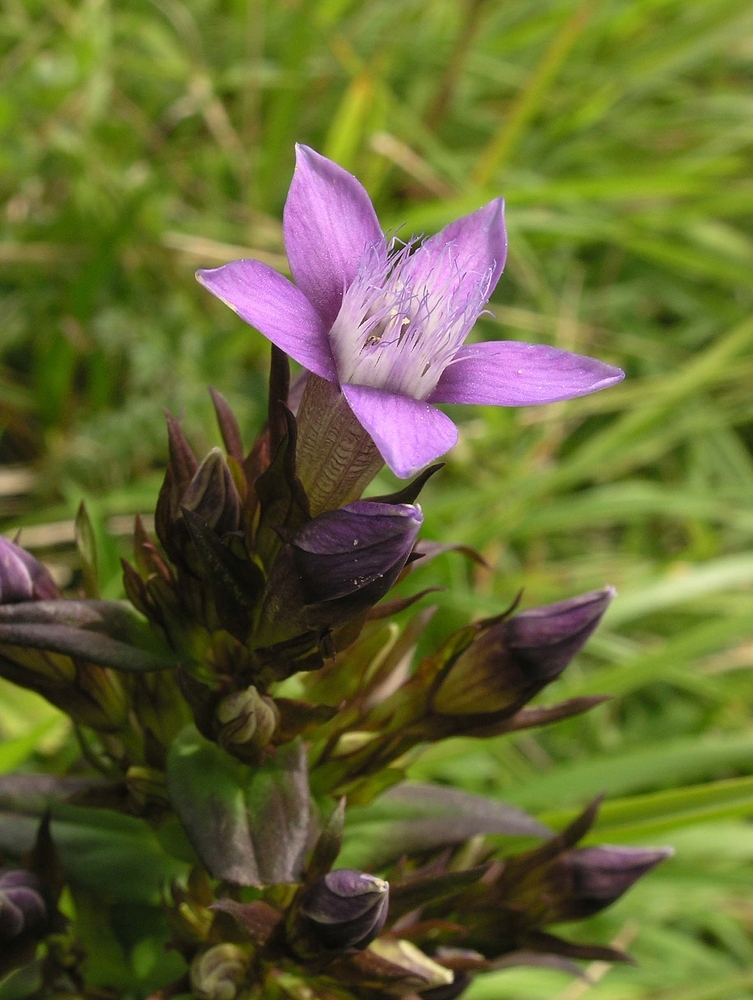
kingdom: Plantae
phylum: Tracheophyta
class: Magnoliopsida
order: Gentianales
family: Gentianaceae
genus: Gentianella
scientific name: Gentianella germanica
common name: Chiltern-gentian
